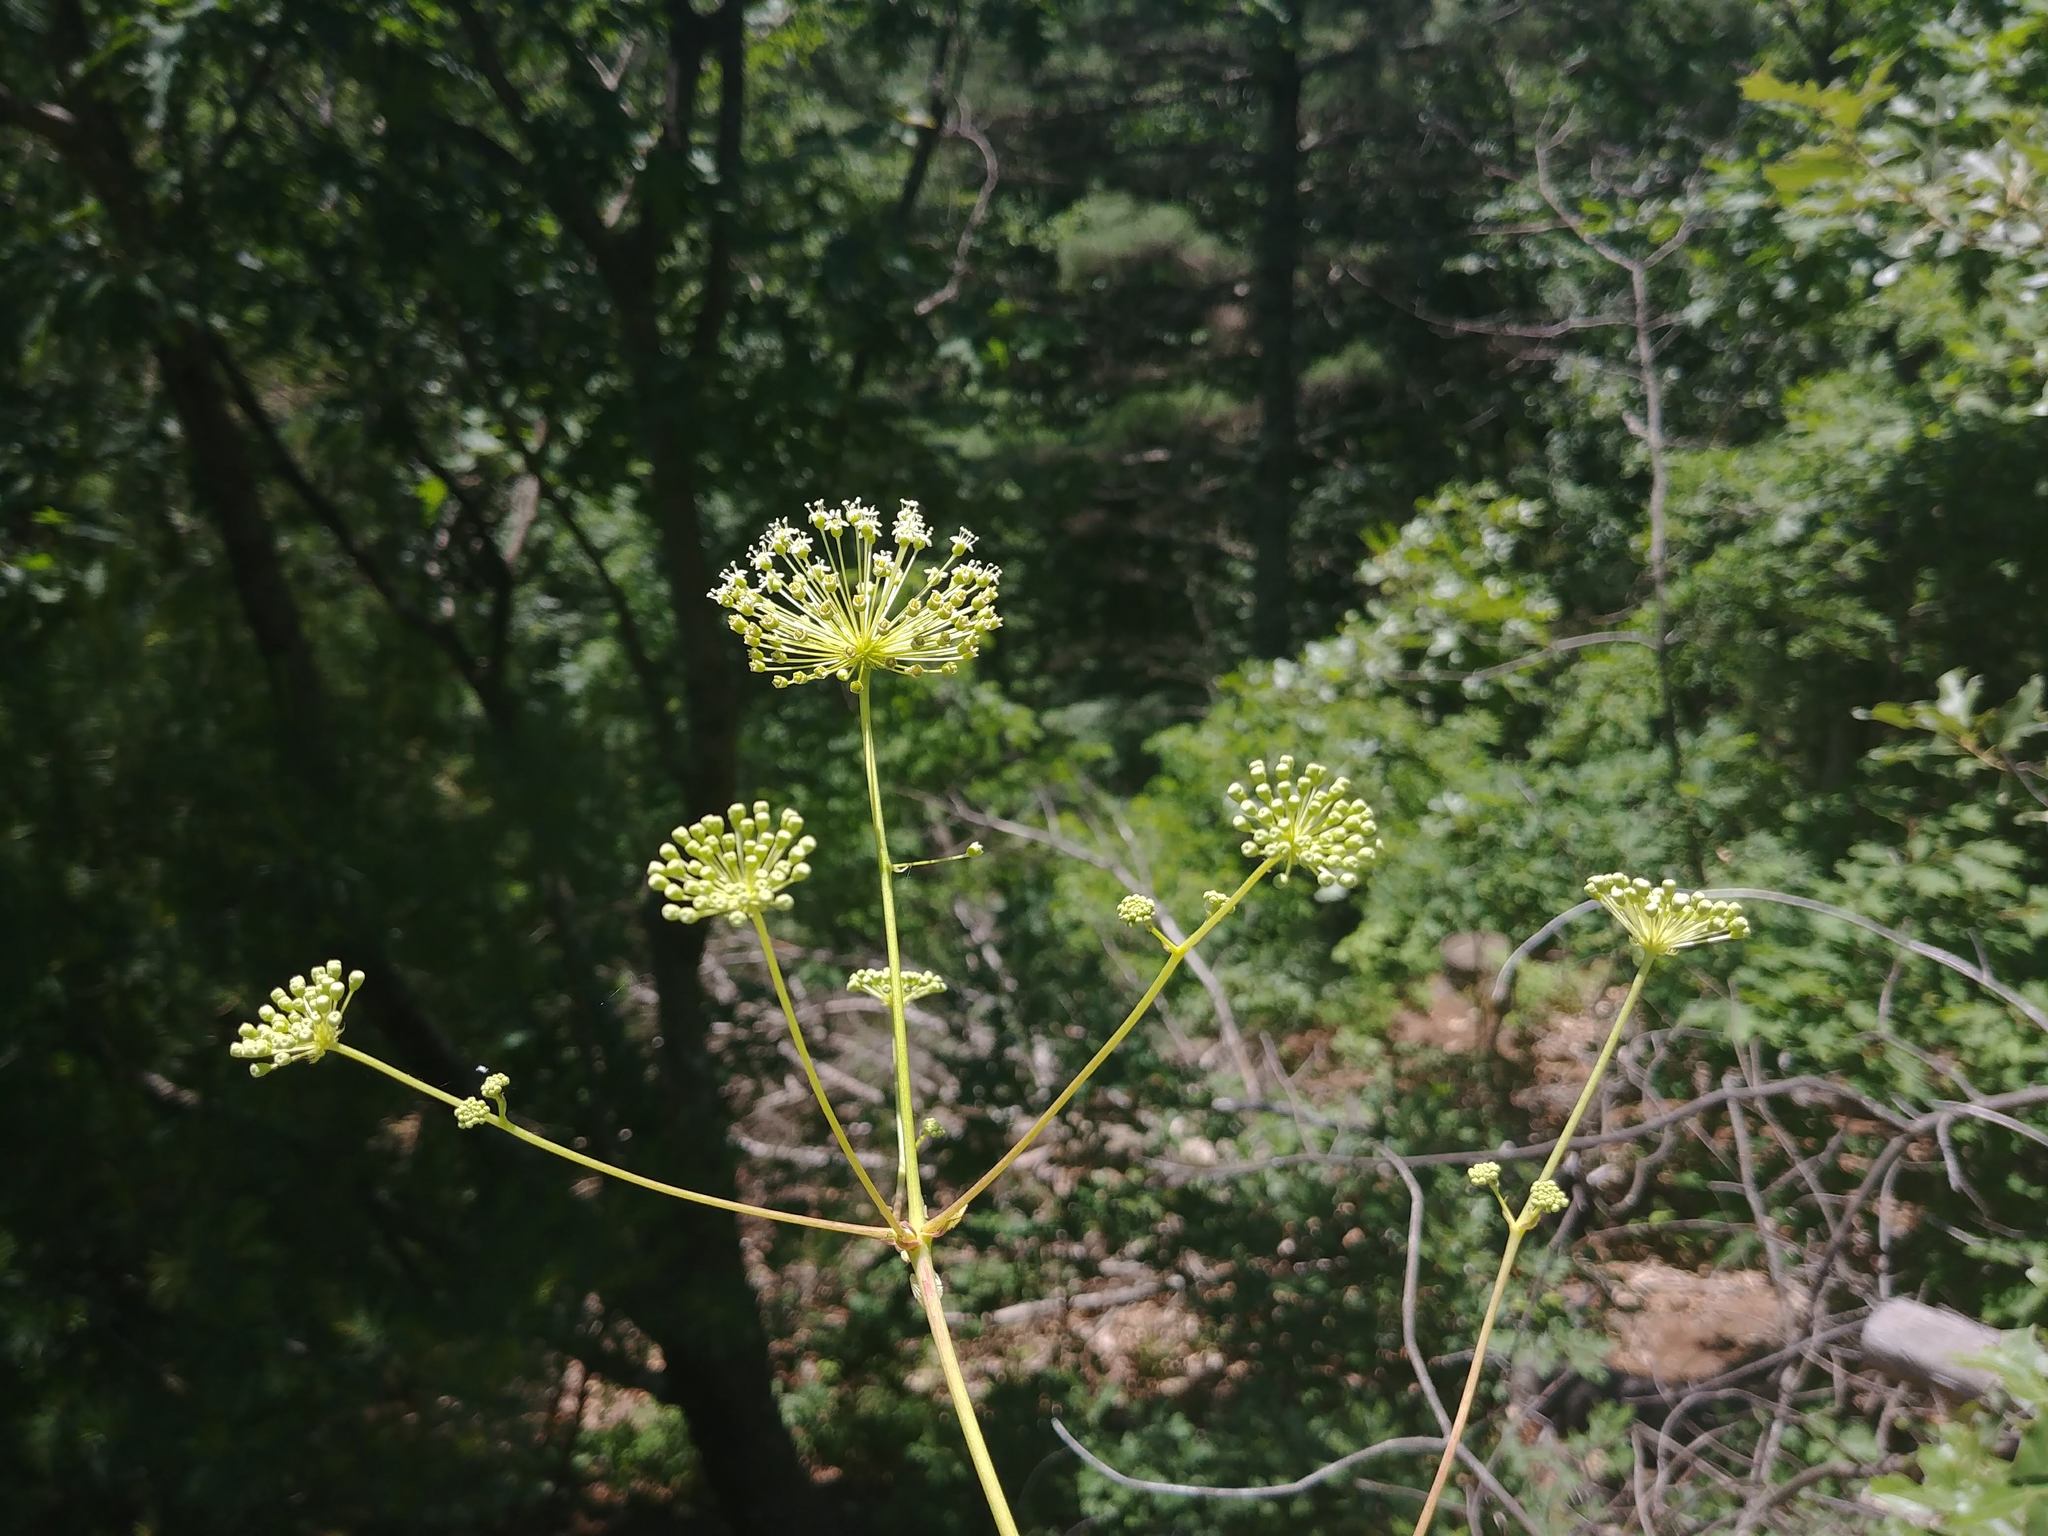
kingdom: Plantae
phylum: Tracheophyta
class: Magnoliopsida
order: Apiales
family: Araliaceae
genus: Aralia
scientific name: Aralia hispida
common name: Bristly sarsaparilla
